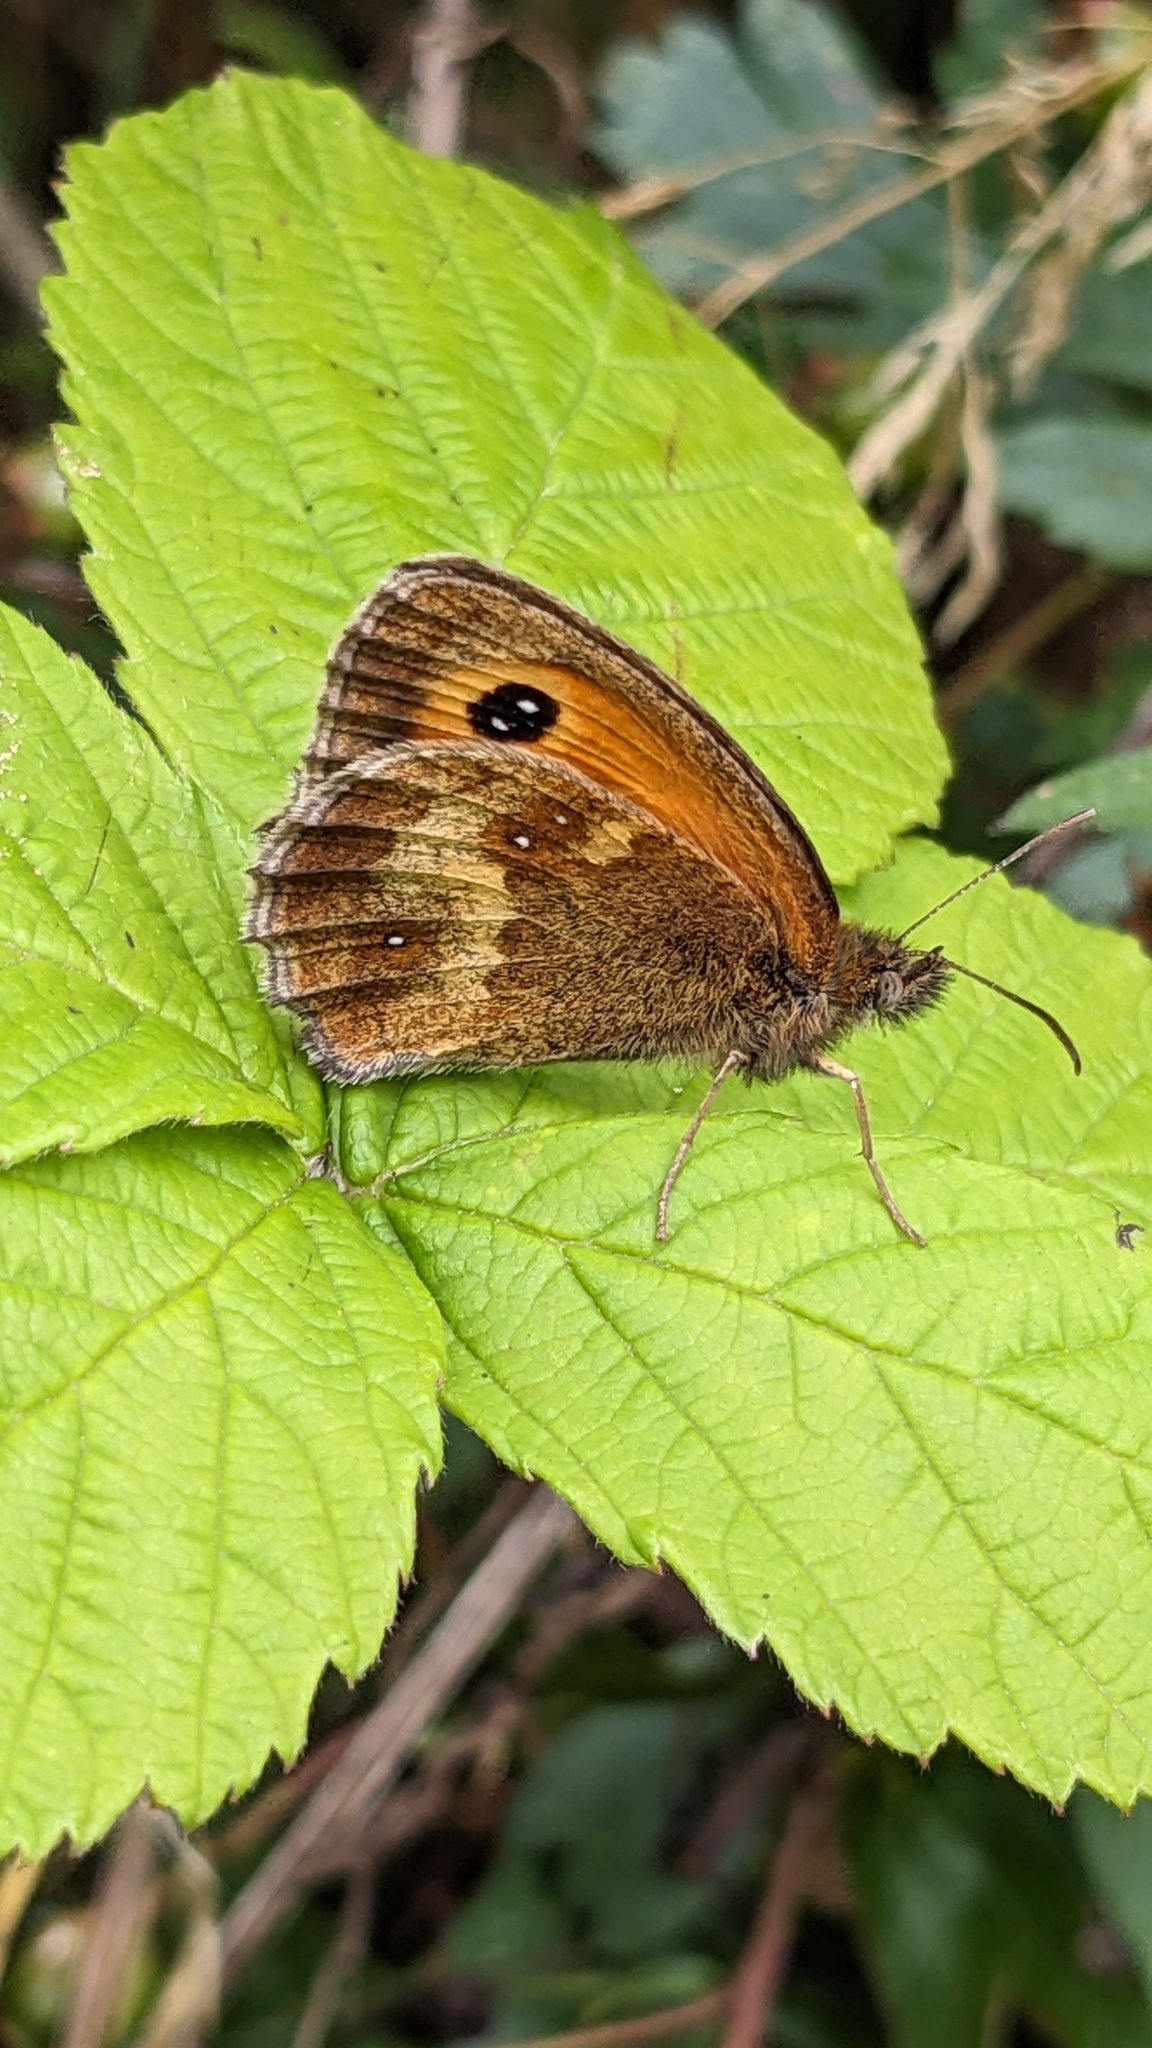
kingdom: Animalia
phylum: Arthropoda
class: Insecta
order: Lepidoptera
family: Nymphalidae
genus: Pyronia
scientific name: Pyronia tithonus
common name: Gatekeeper
